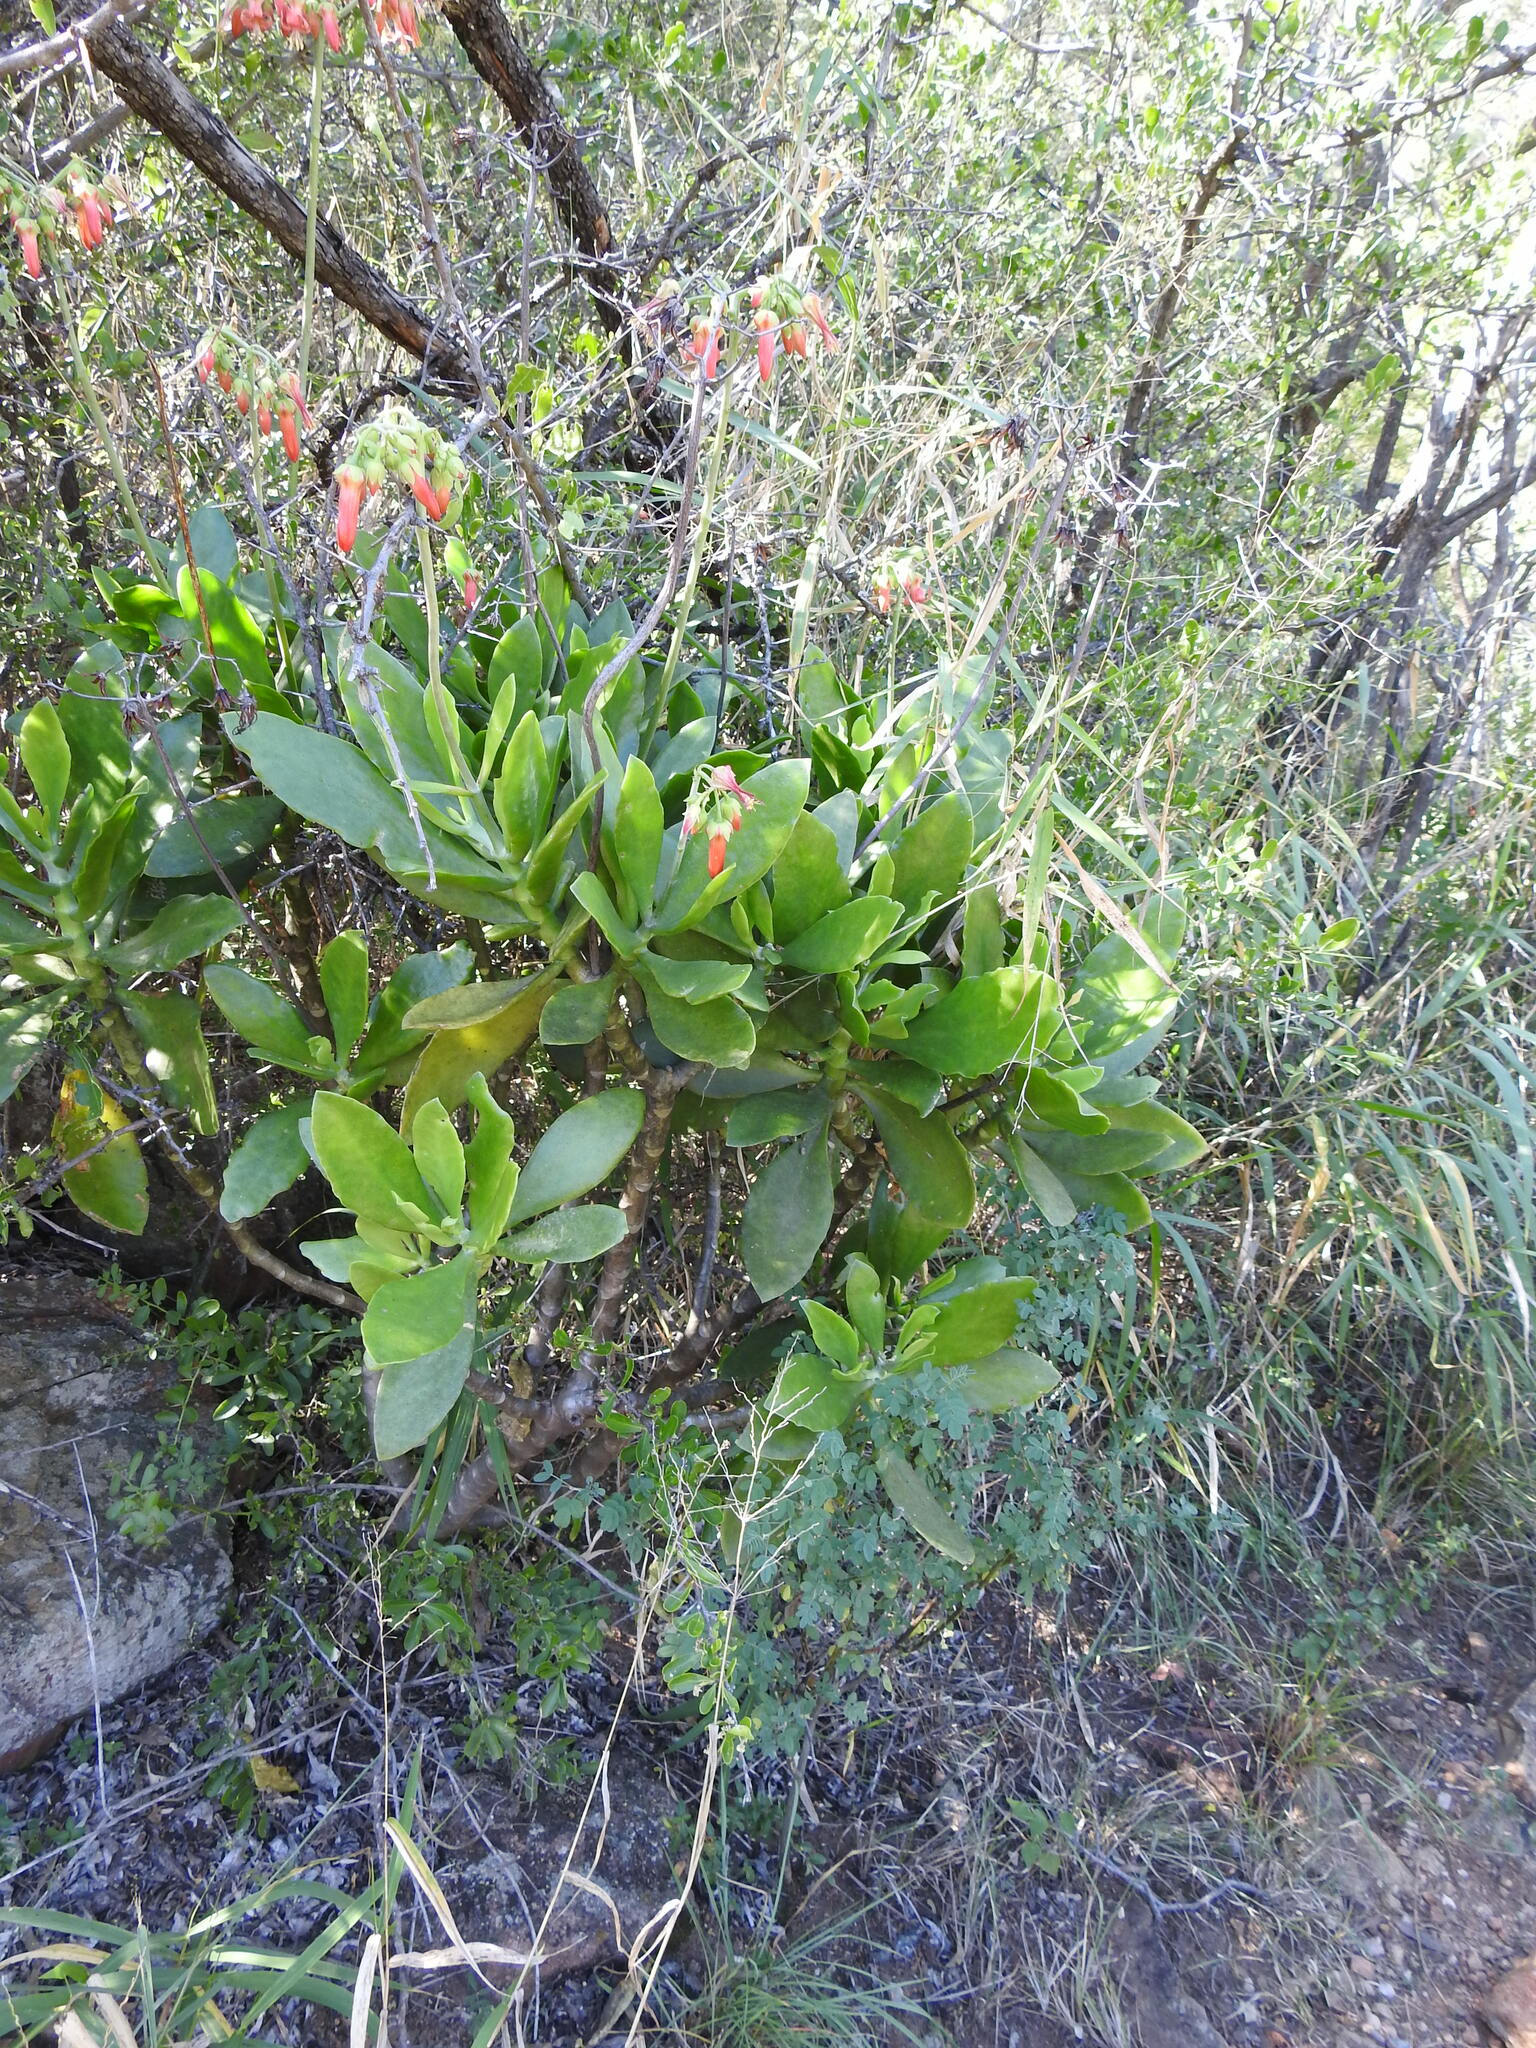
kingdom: Plantae
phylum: Tracheophyta
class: Magnoliopsida
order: Saxifragales
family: Crassulaceae
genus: Cotyledon
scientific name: Cotyledon barbeyi
